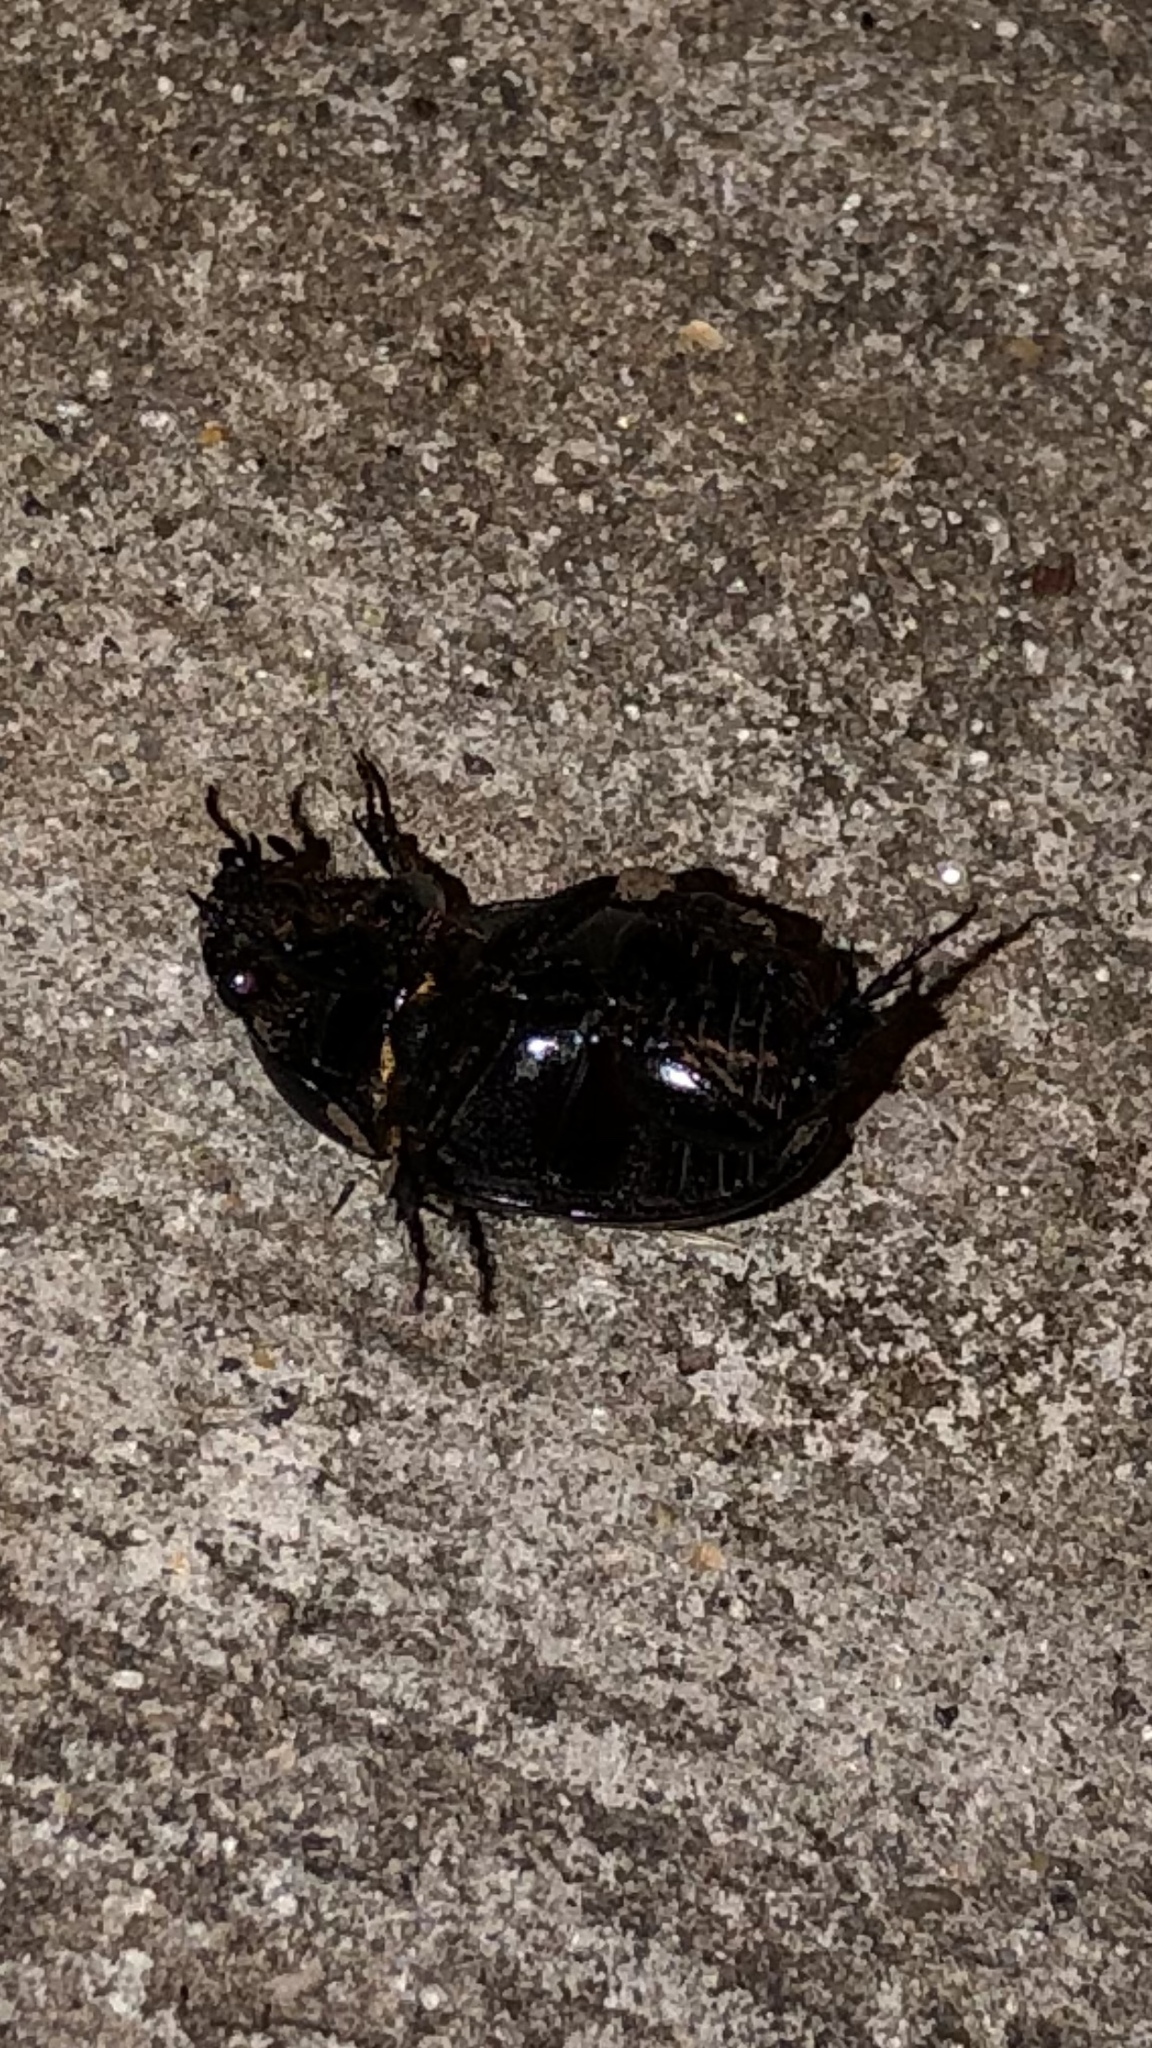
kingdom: Animalia
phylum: Arthropoda
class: Insecta
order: Coleoptera
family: Scarabaeidae
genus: Euetheola
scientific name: Euetheola humilis
